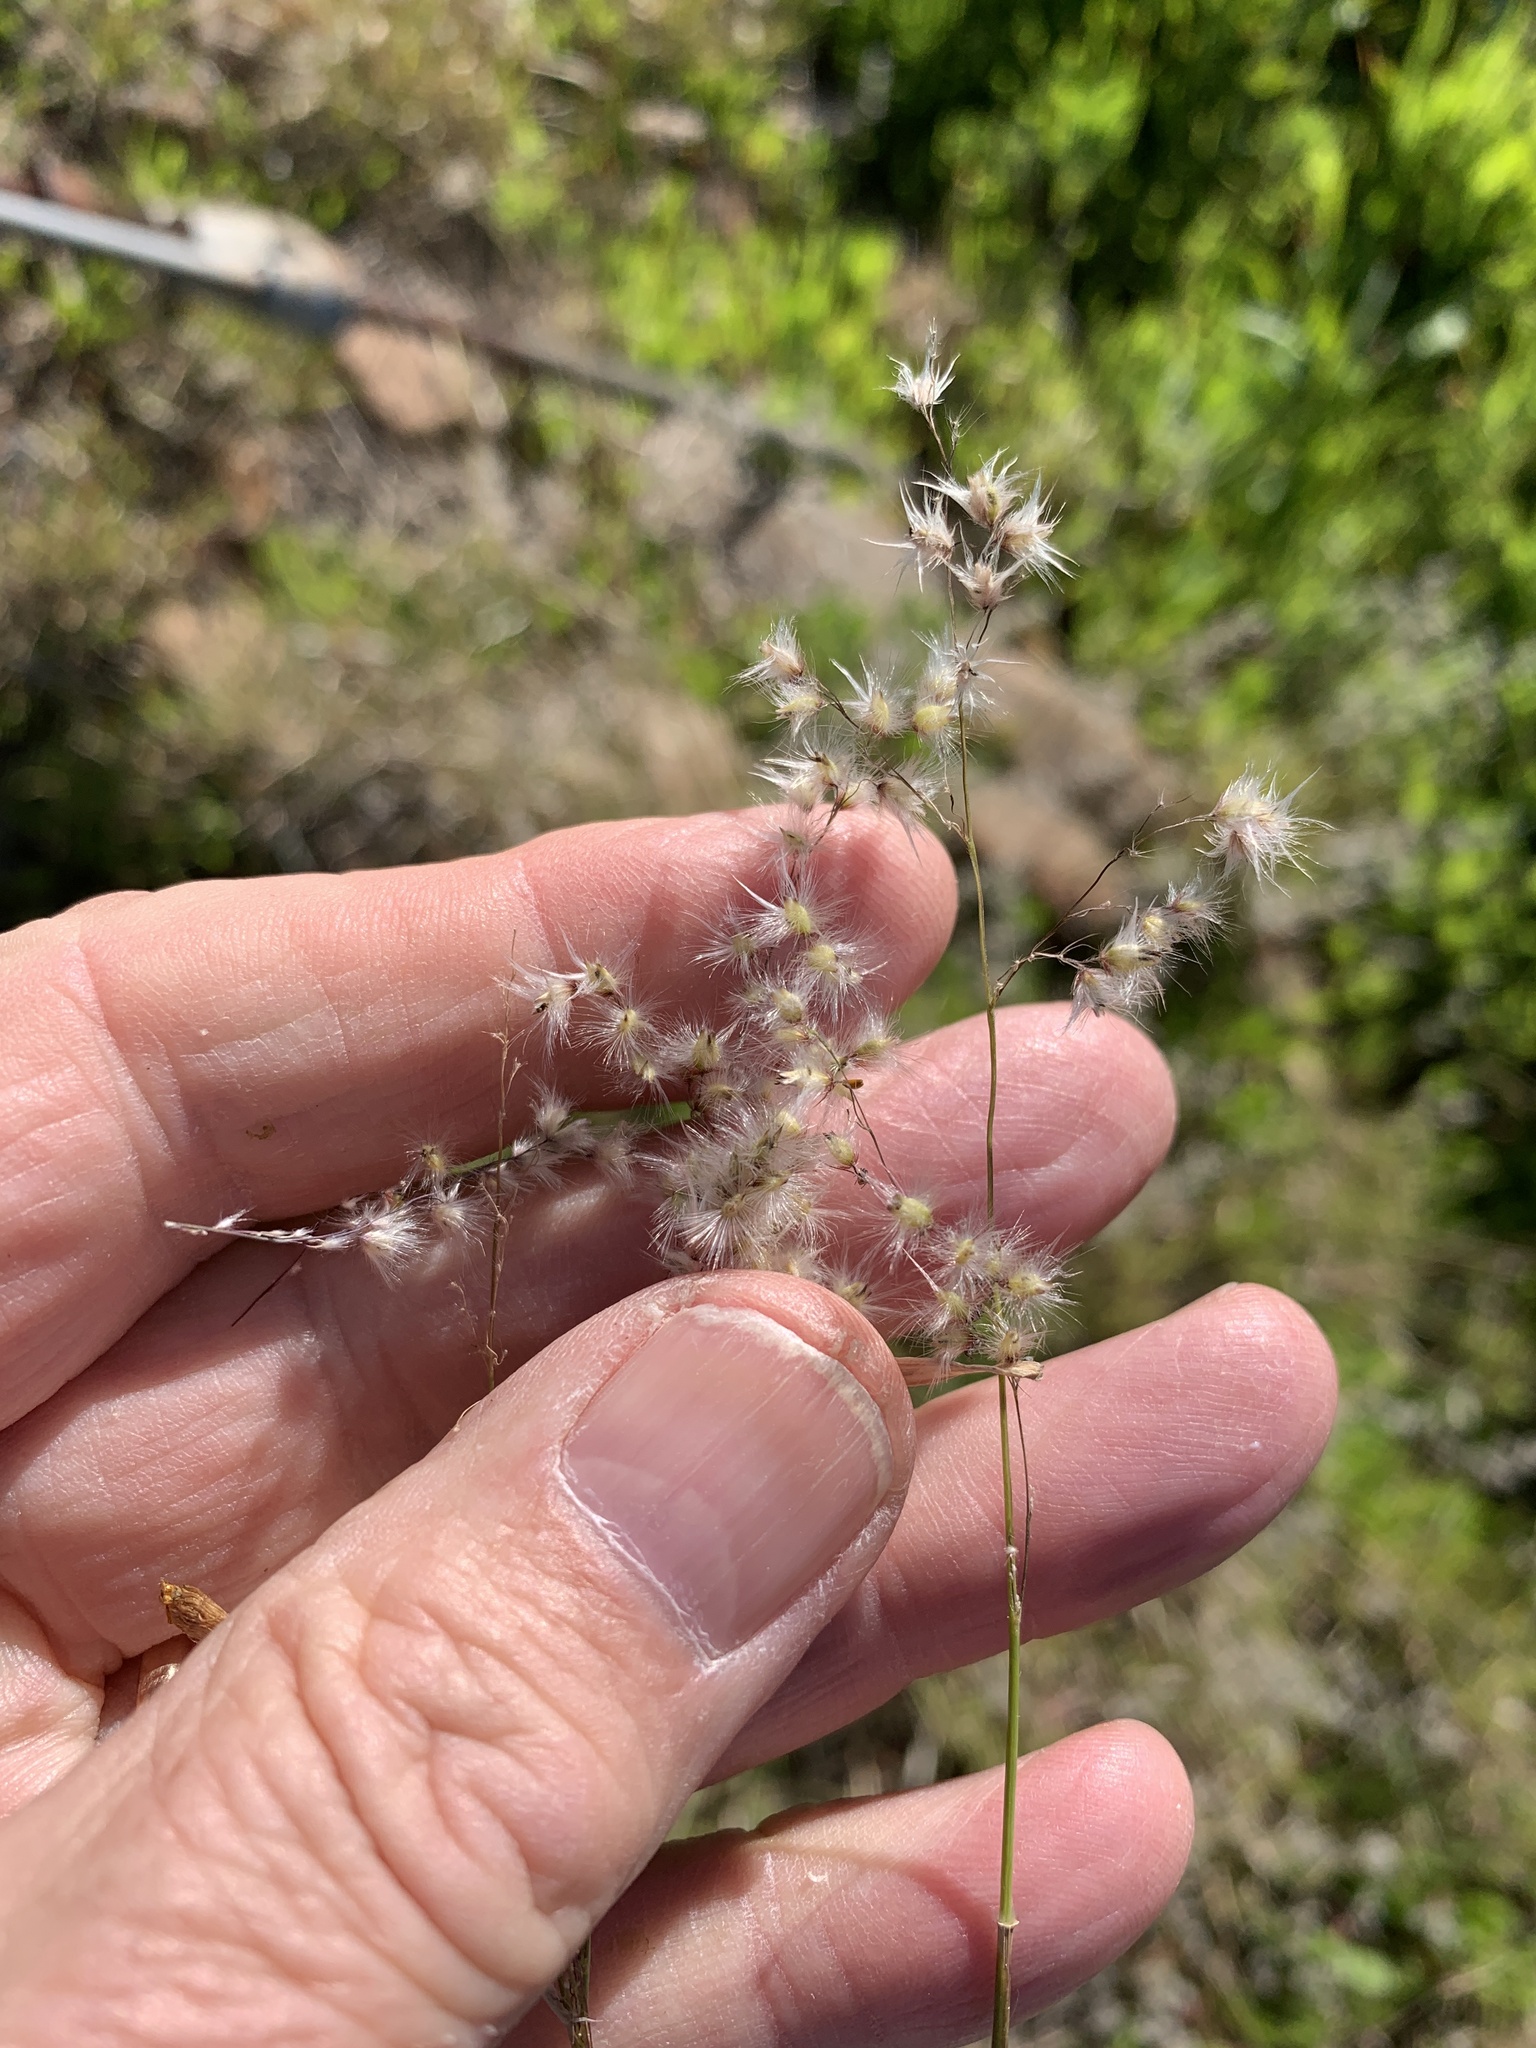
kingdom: Plantae
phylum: Tracheophyta
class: Liliopsida
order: Poales
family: Poaceae
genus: Melinis
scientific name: Melinis repens
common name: Rose natal grass
